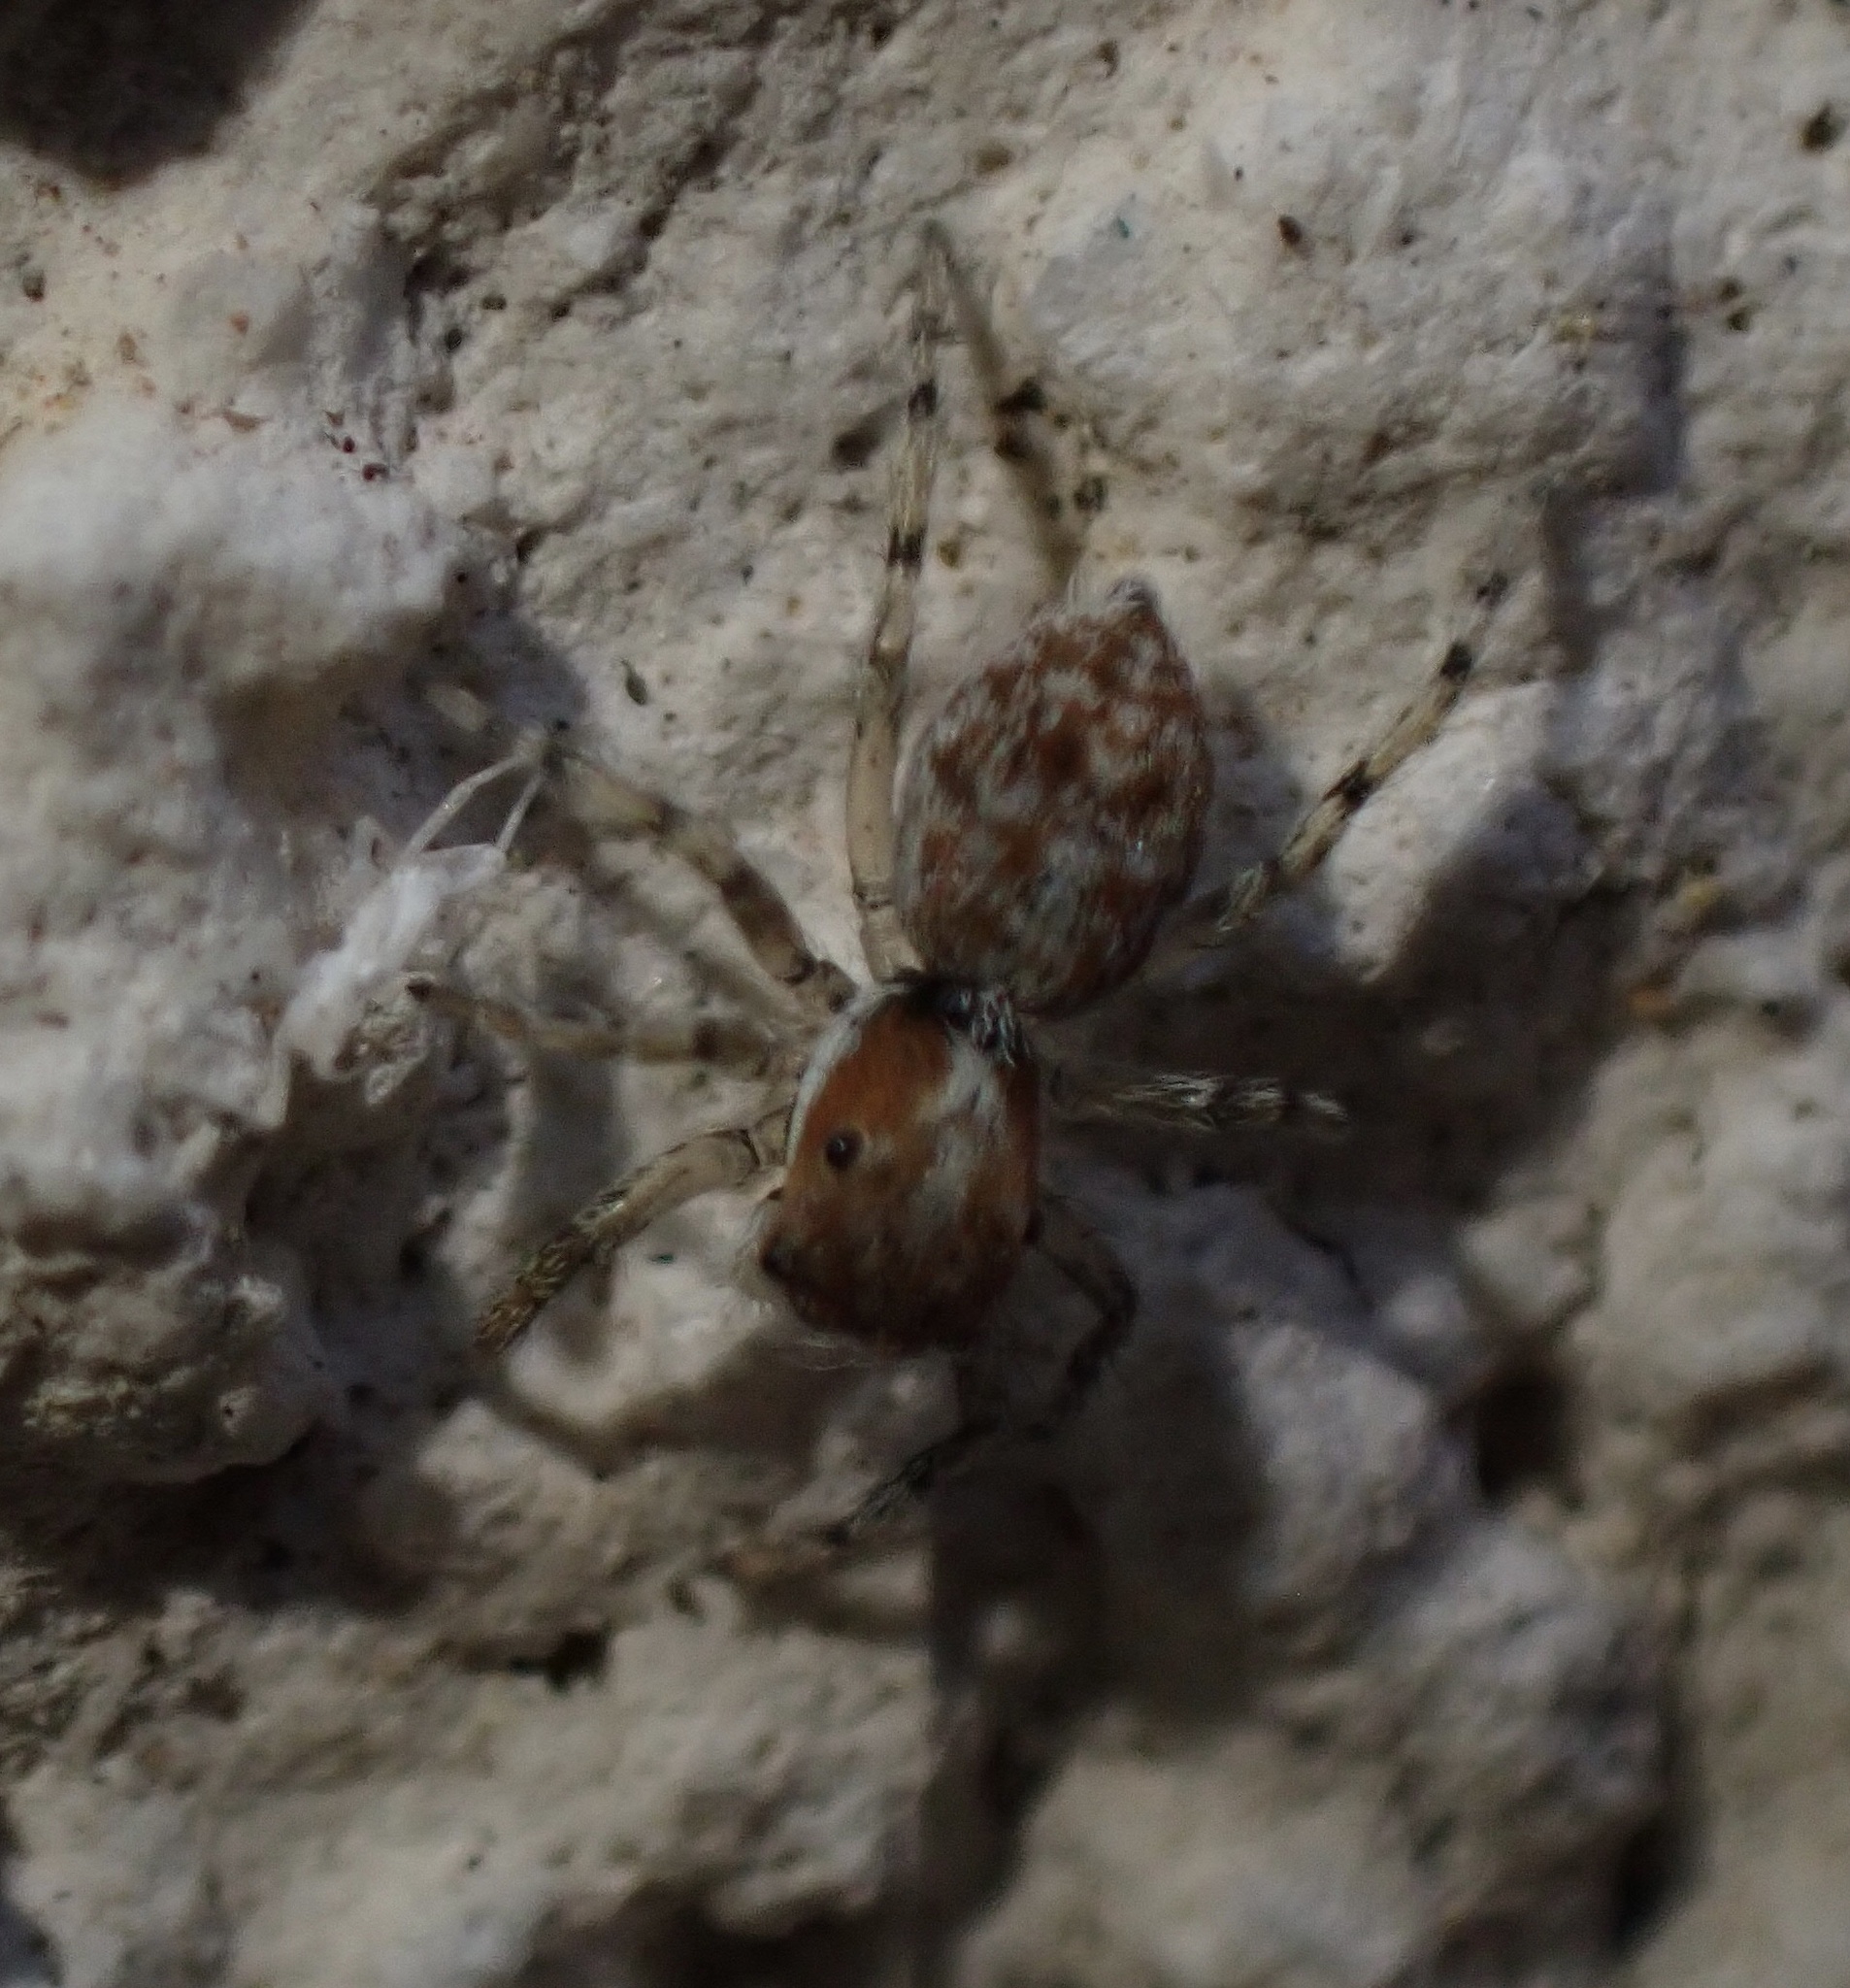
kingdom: Animalia
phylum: Arthropoda
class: Arachnida
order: Araneae
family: Salticidae
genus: Menemerus
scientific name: Menemerus semilimbatus
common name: Jumping spider
